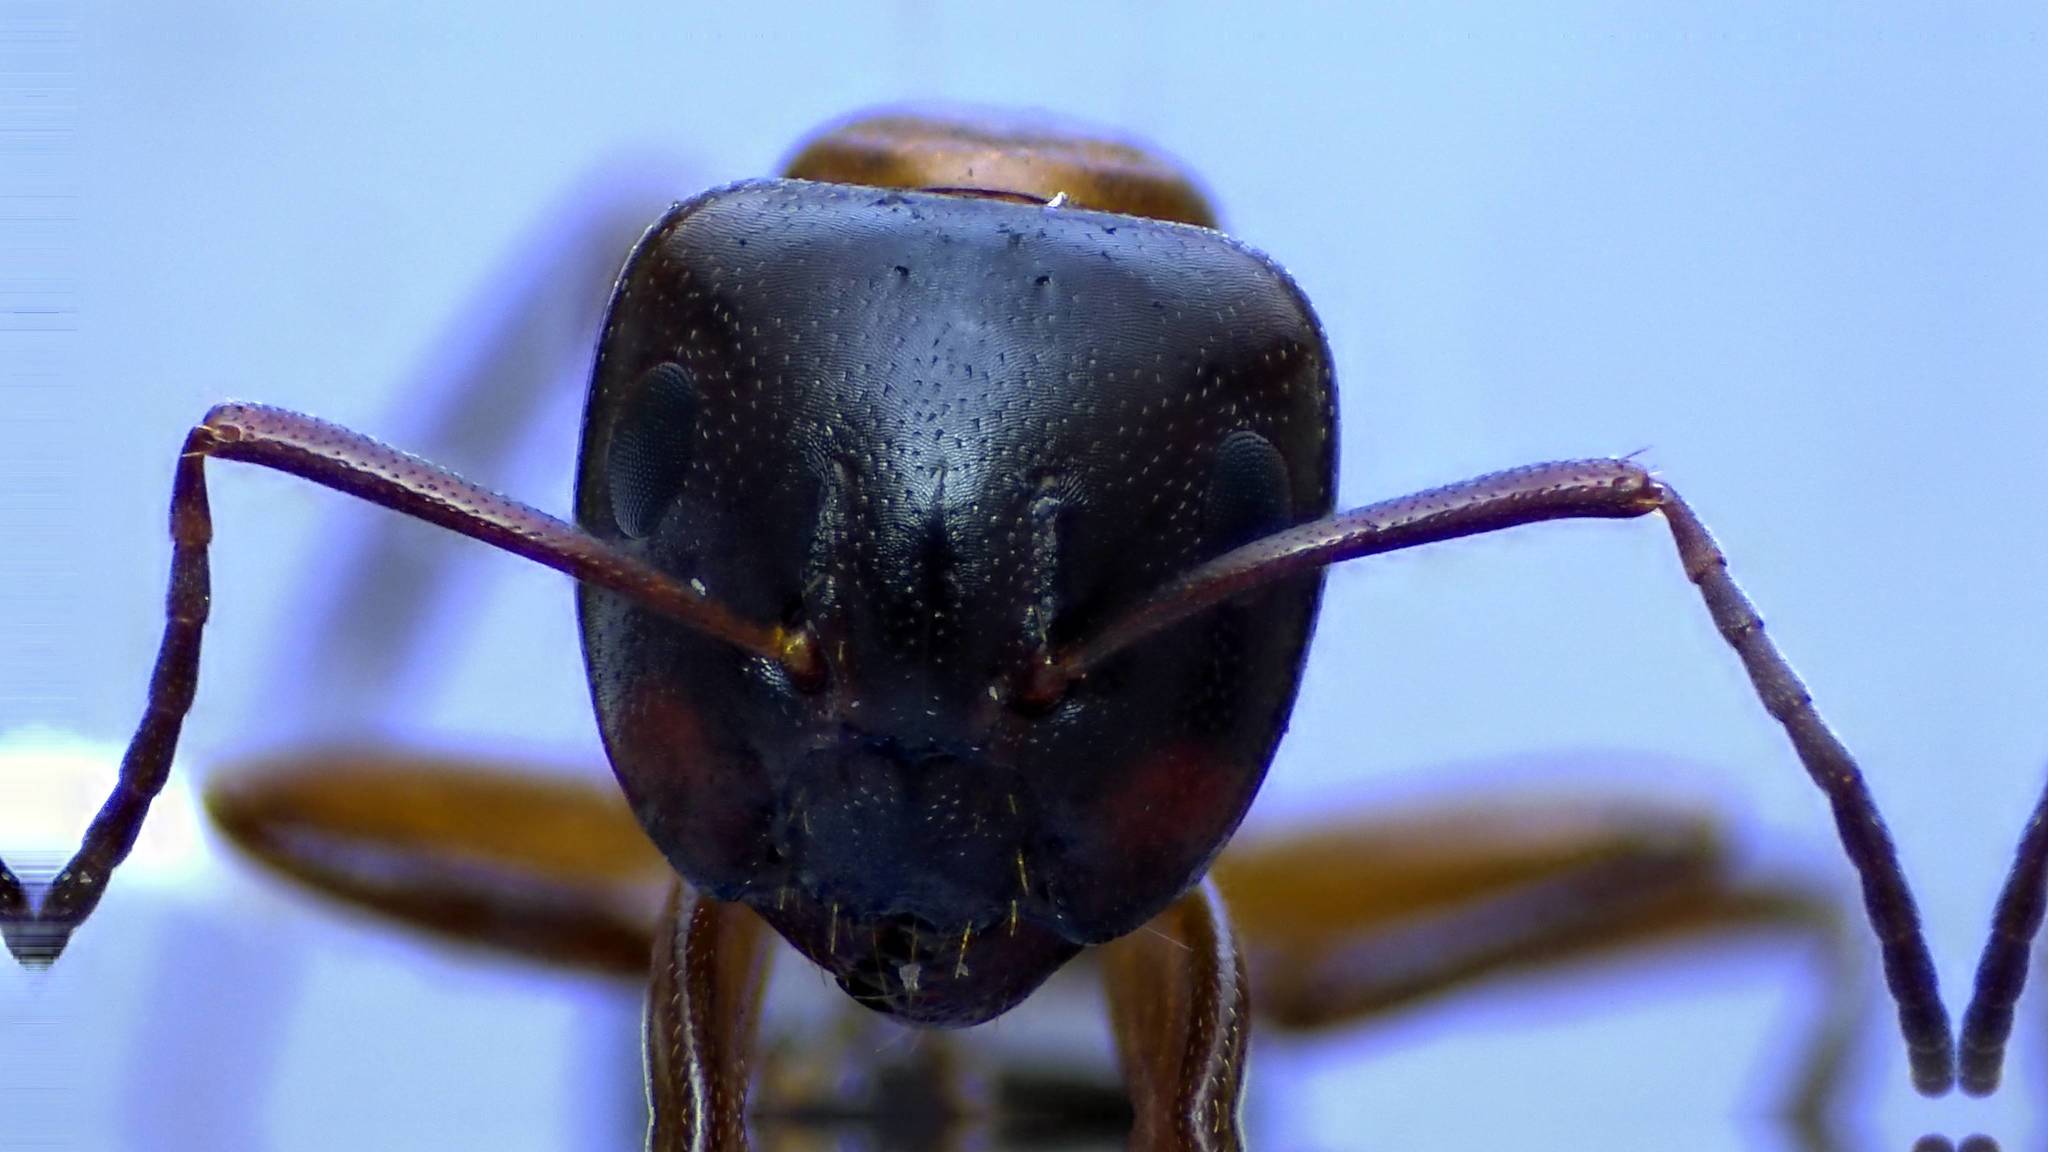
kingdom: Animalia
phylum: Arthropoda
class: Insecta
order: Hymenoptera
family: Formicidae
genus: Camponotus
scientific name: Camponotus nearcticus
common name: Smaller carpenter ant
